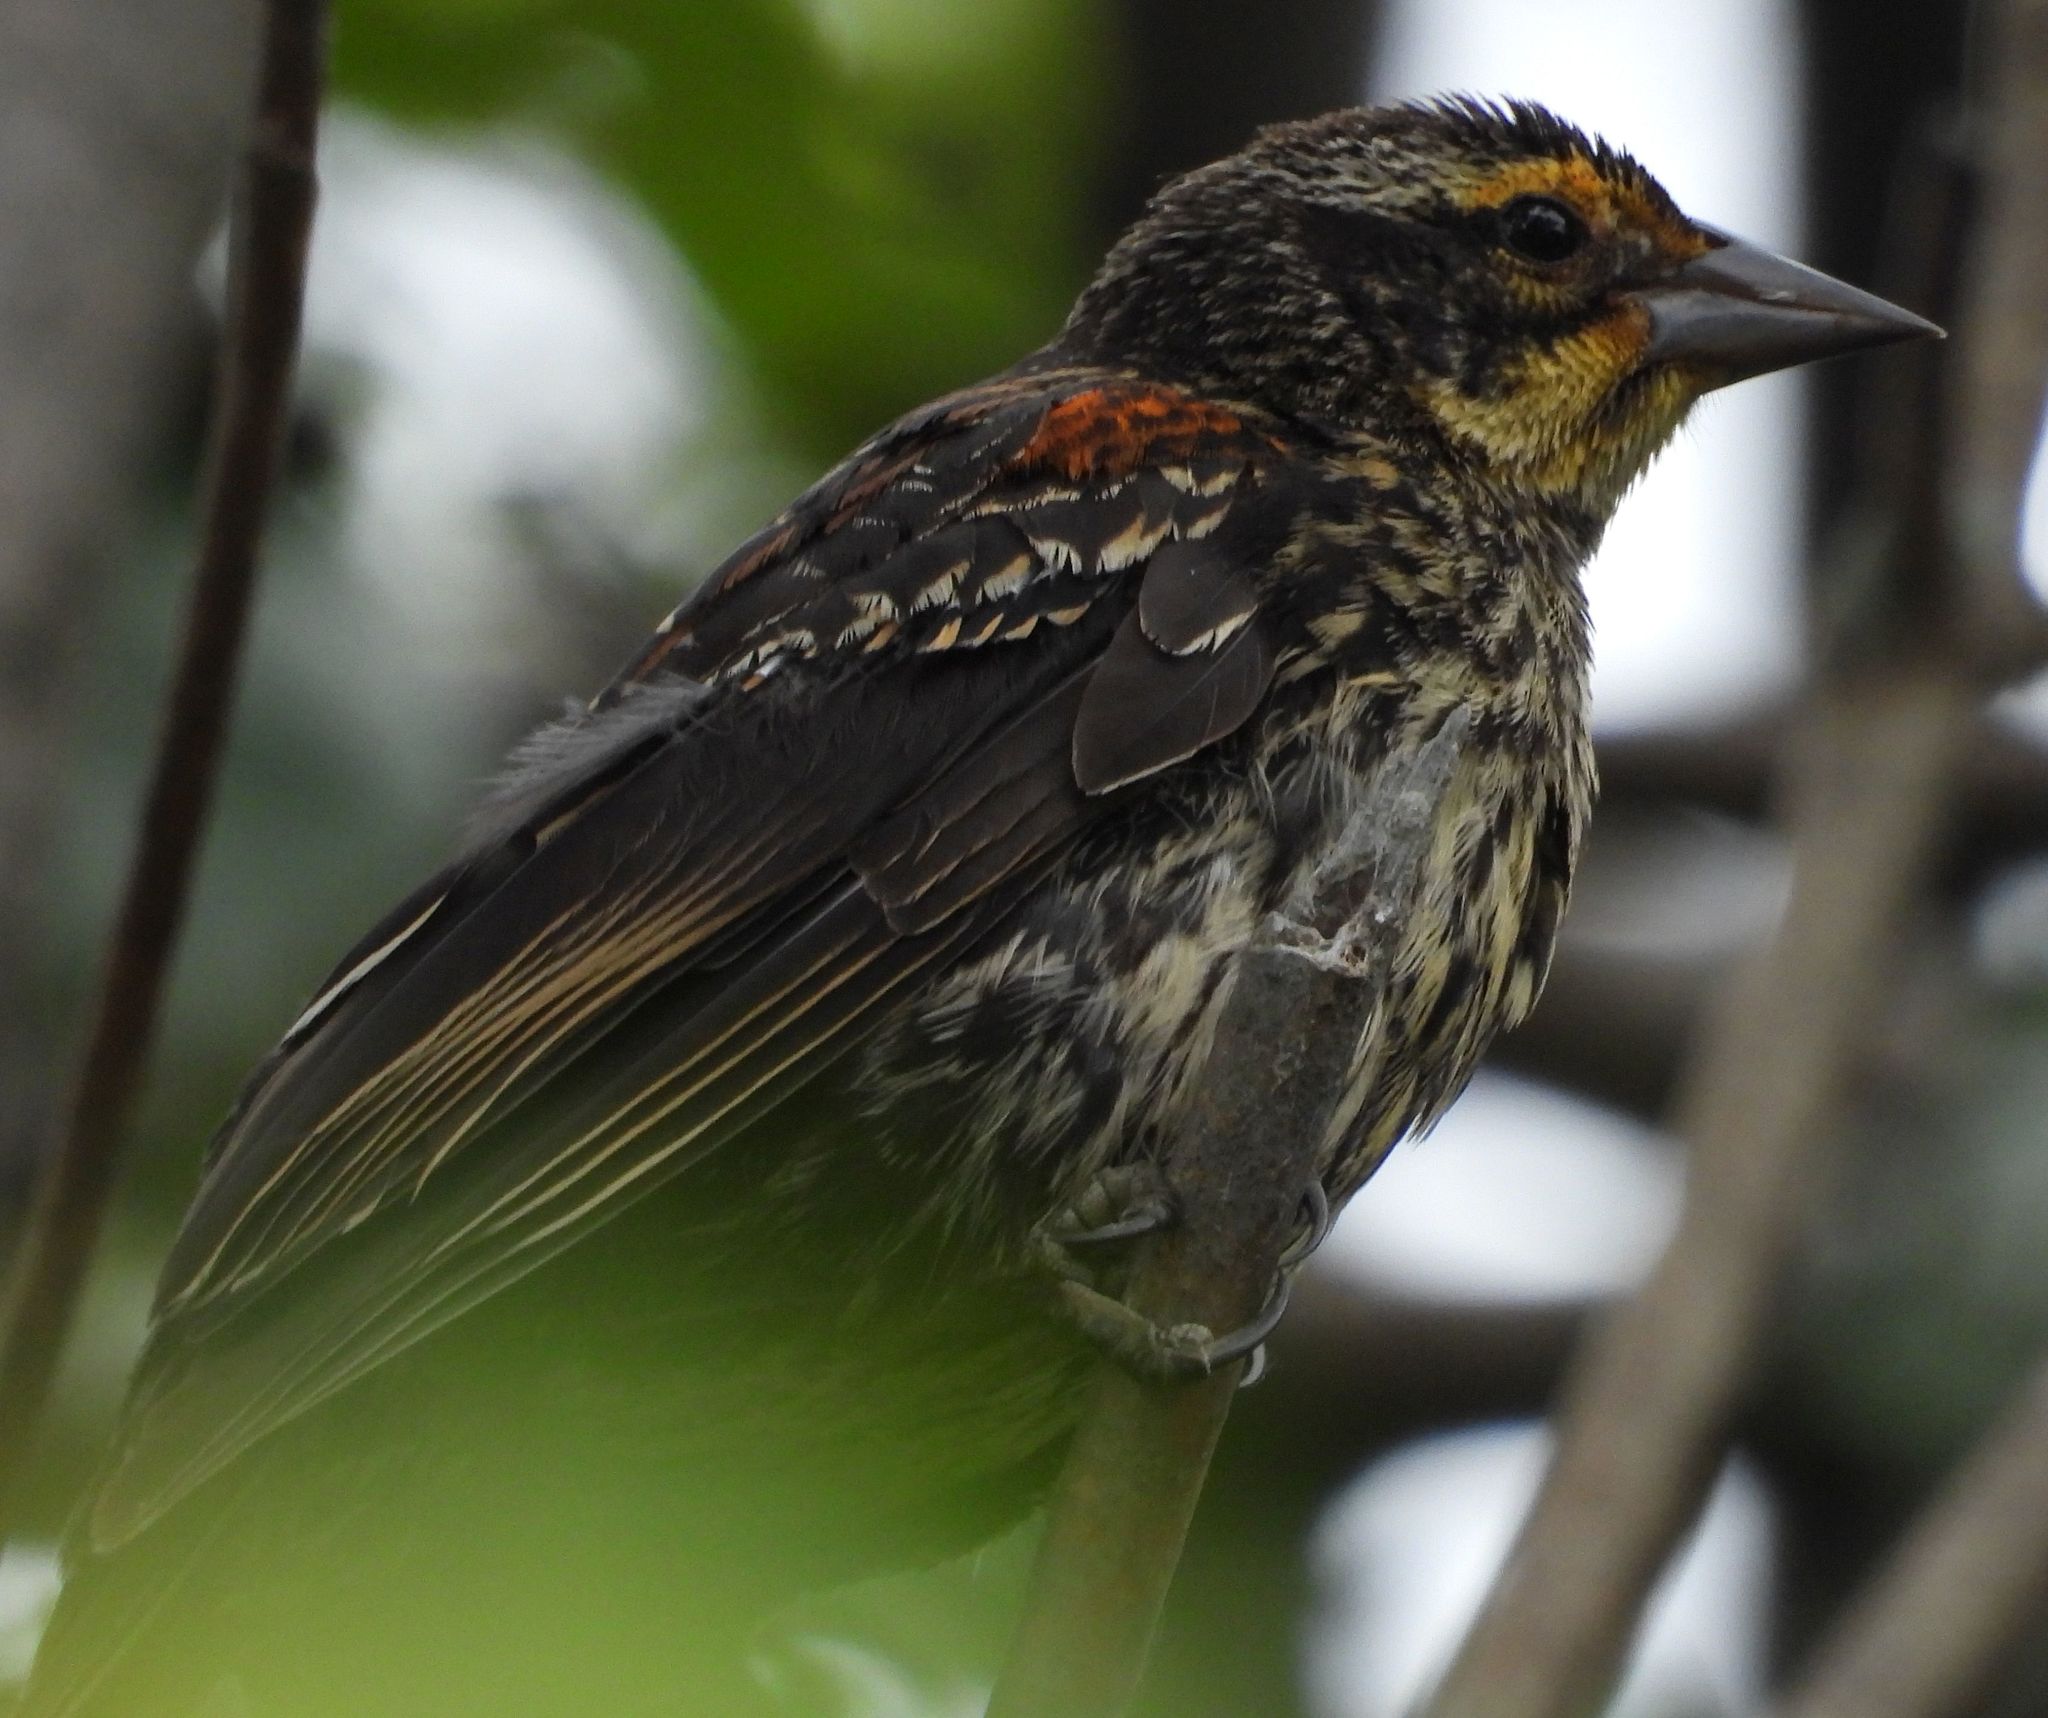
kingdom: Animalia
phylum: Chordata
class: Aves
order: Passeriformes
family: Icteridae
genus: Agelaius
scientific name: Agelaius phoeniceus
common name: Red-winged blackbird
